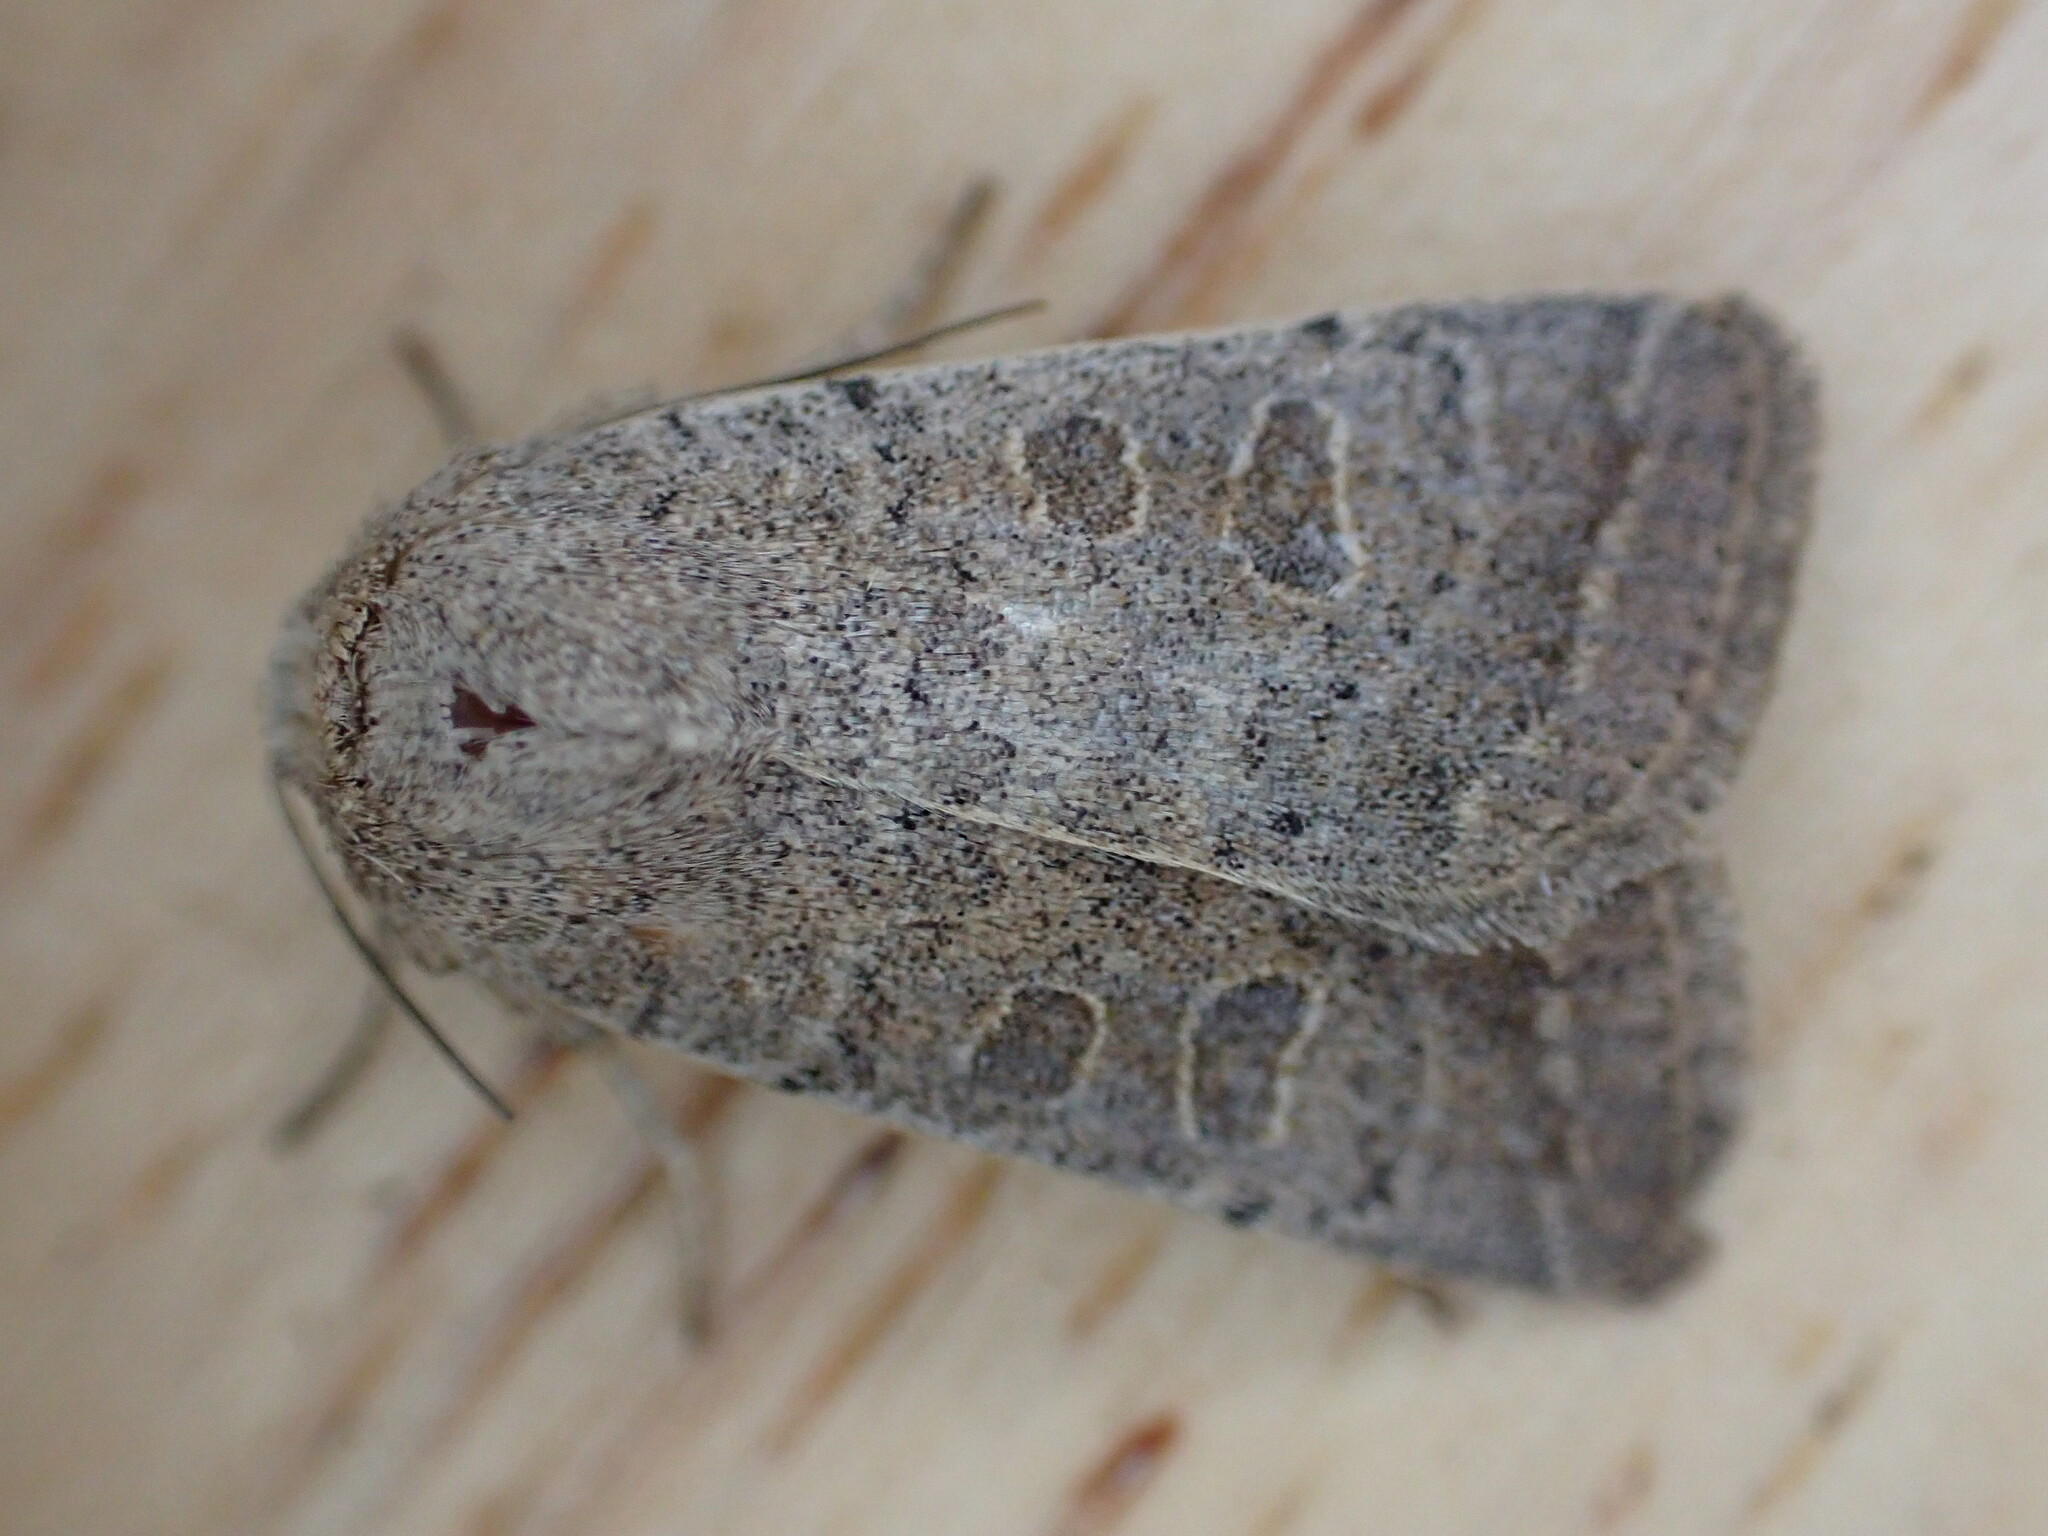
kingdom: Animalia
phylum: Arthropoda
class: Insecta
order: Lepidoptera
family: Noctuidae
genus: Hoplodrina
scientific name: Hoplodrina ambigua
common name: Vine's rustic
